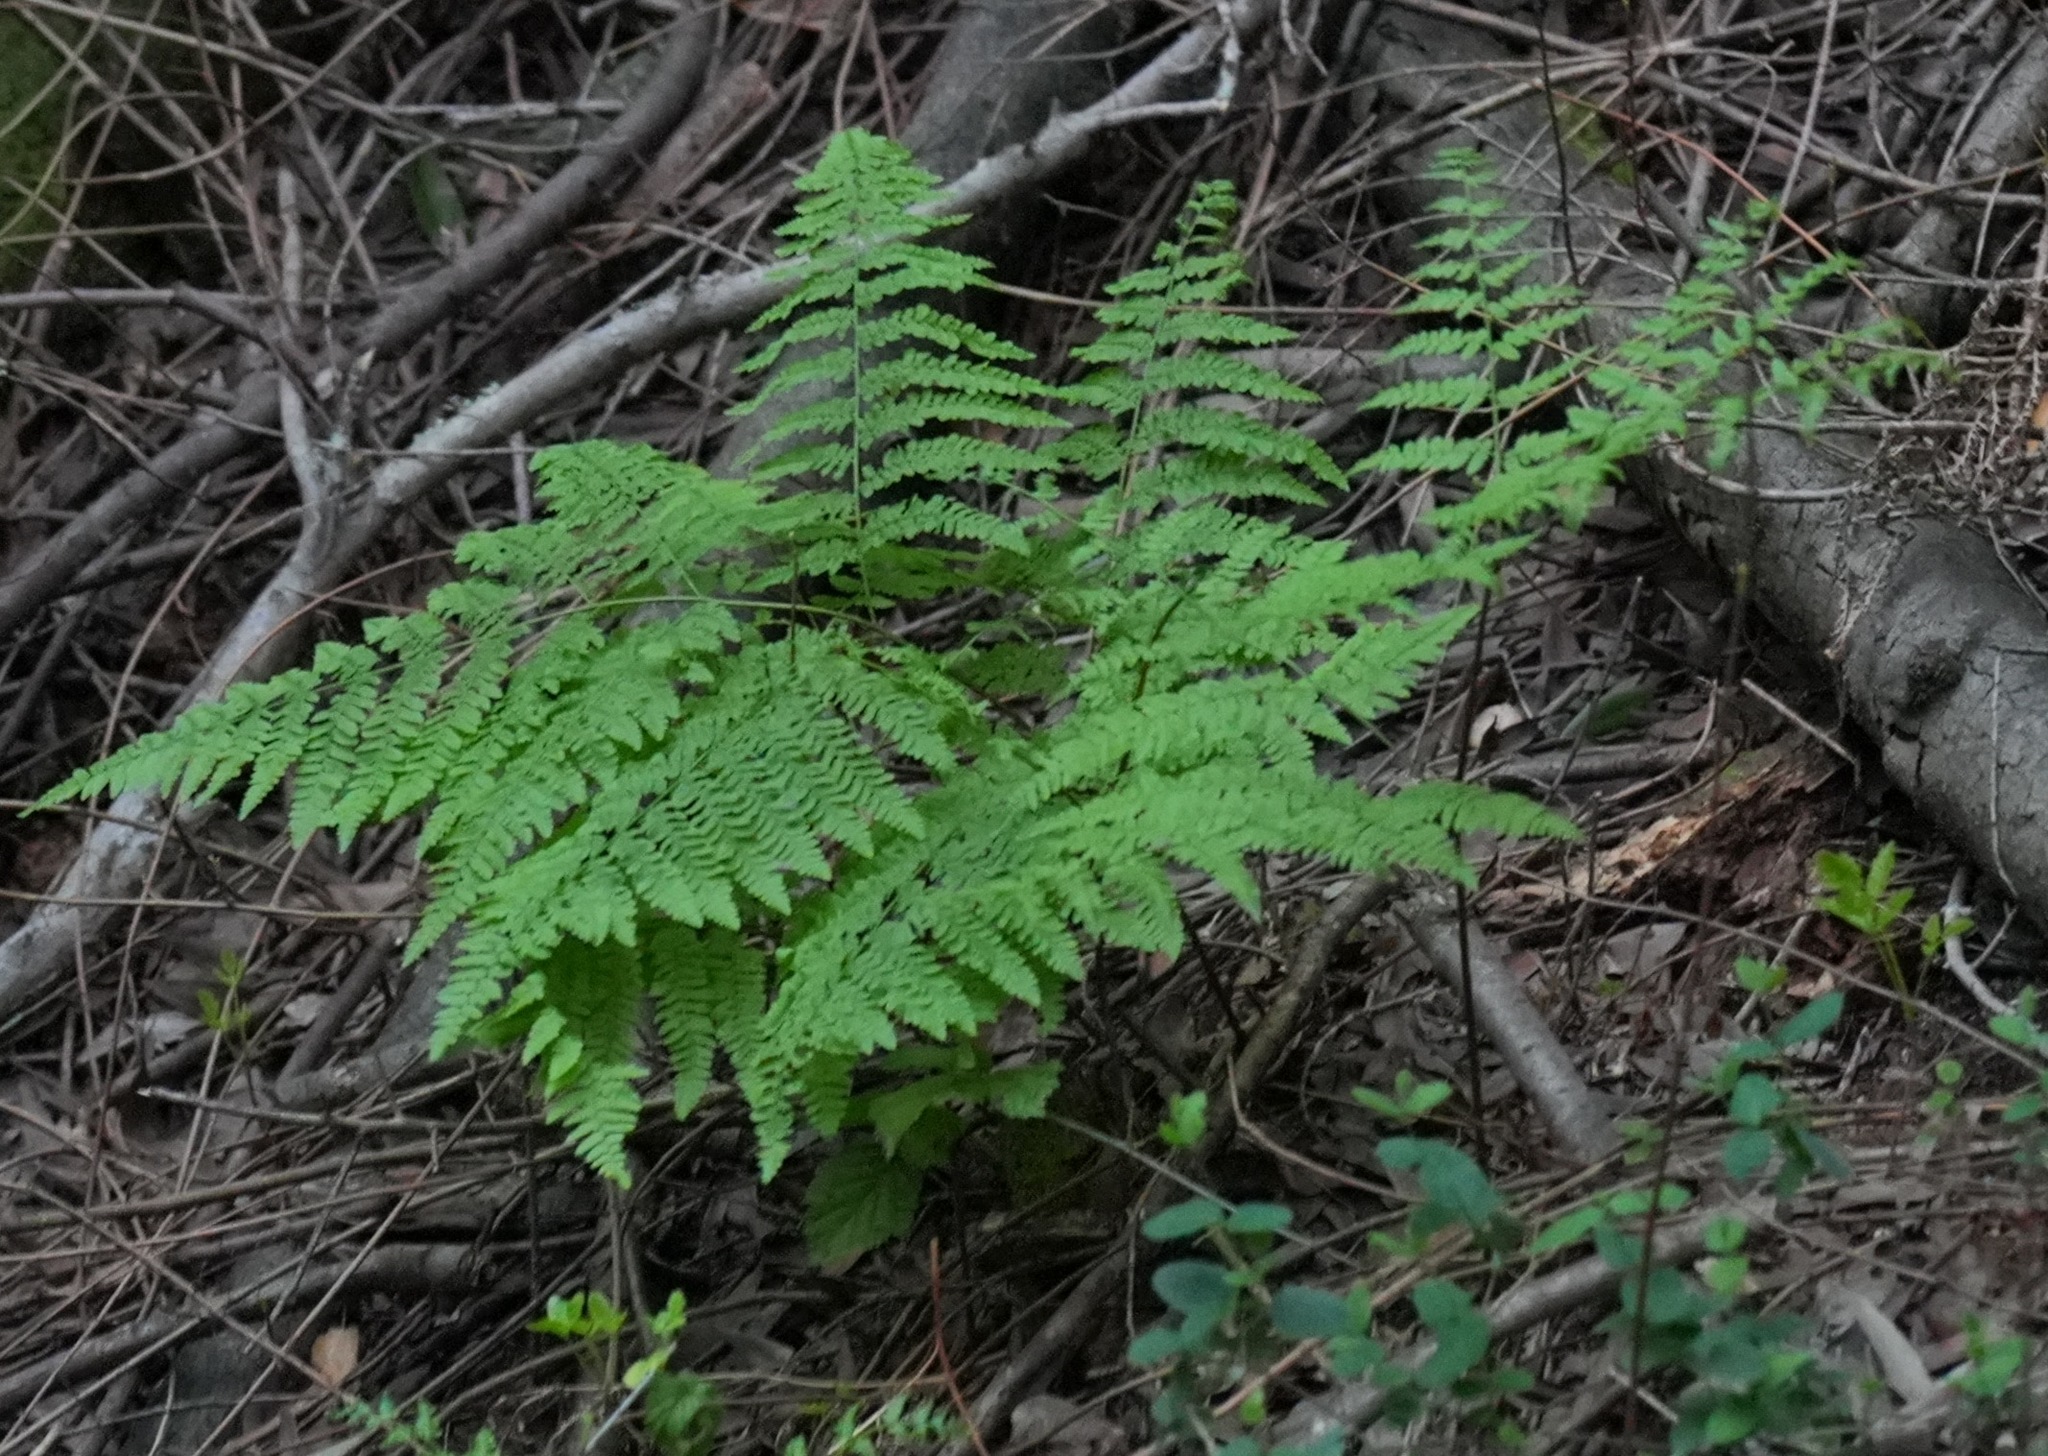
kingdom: Plantae
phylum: Tracheophyta
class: Polypodiopsida
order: Polypodiales
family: Dennstaedtiaceae
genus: Pteridium
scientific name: Pteridium aquilinum
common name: Bracken
